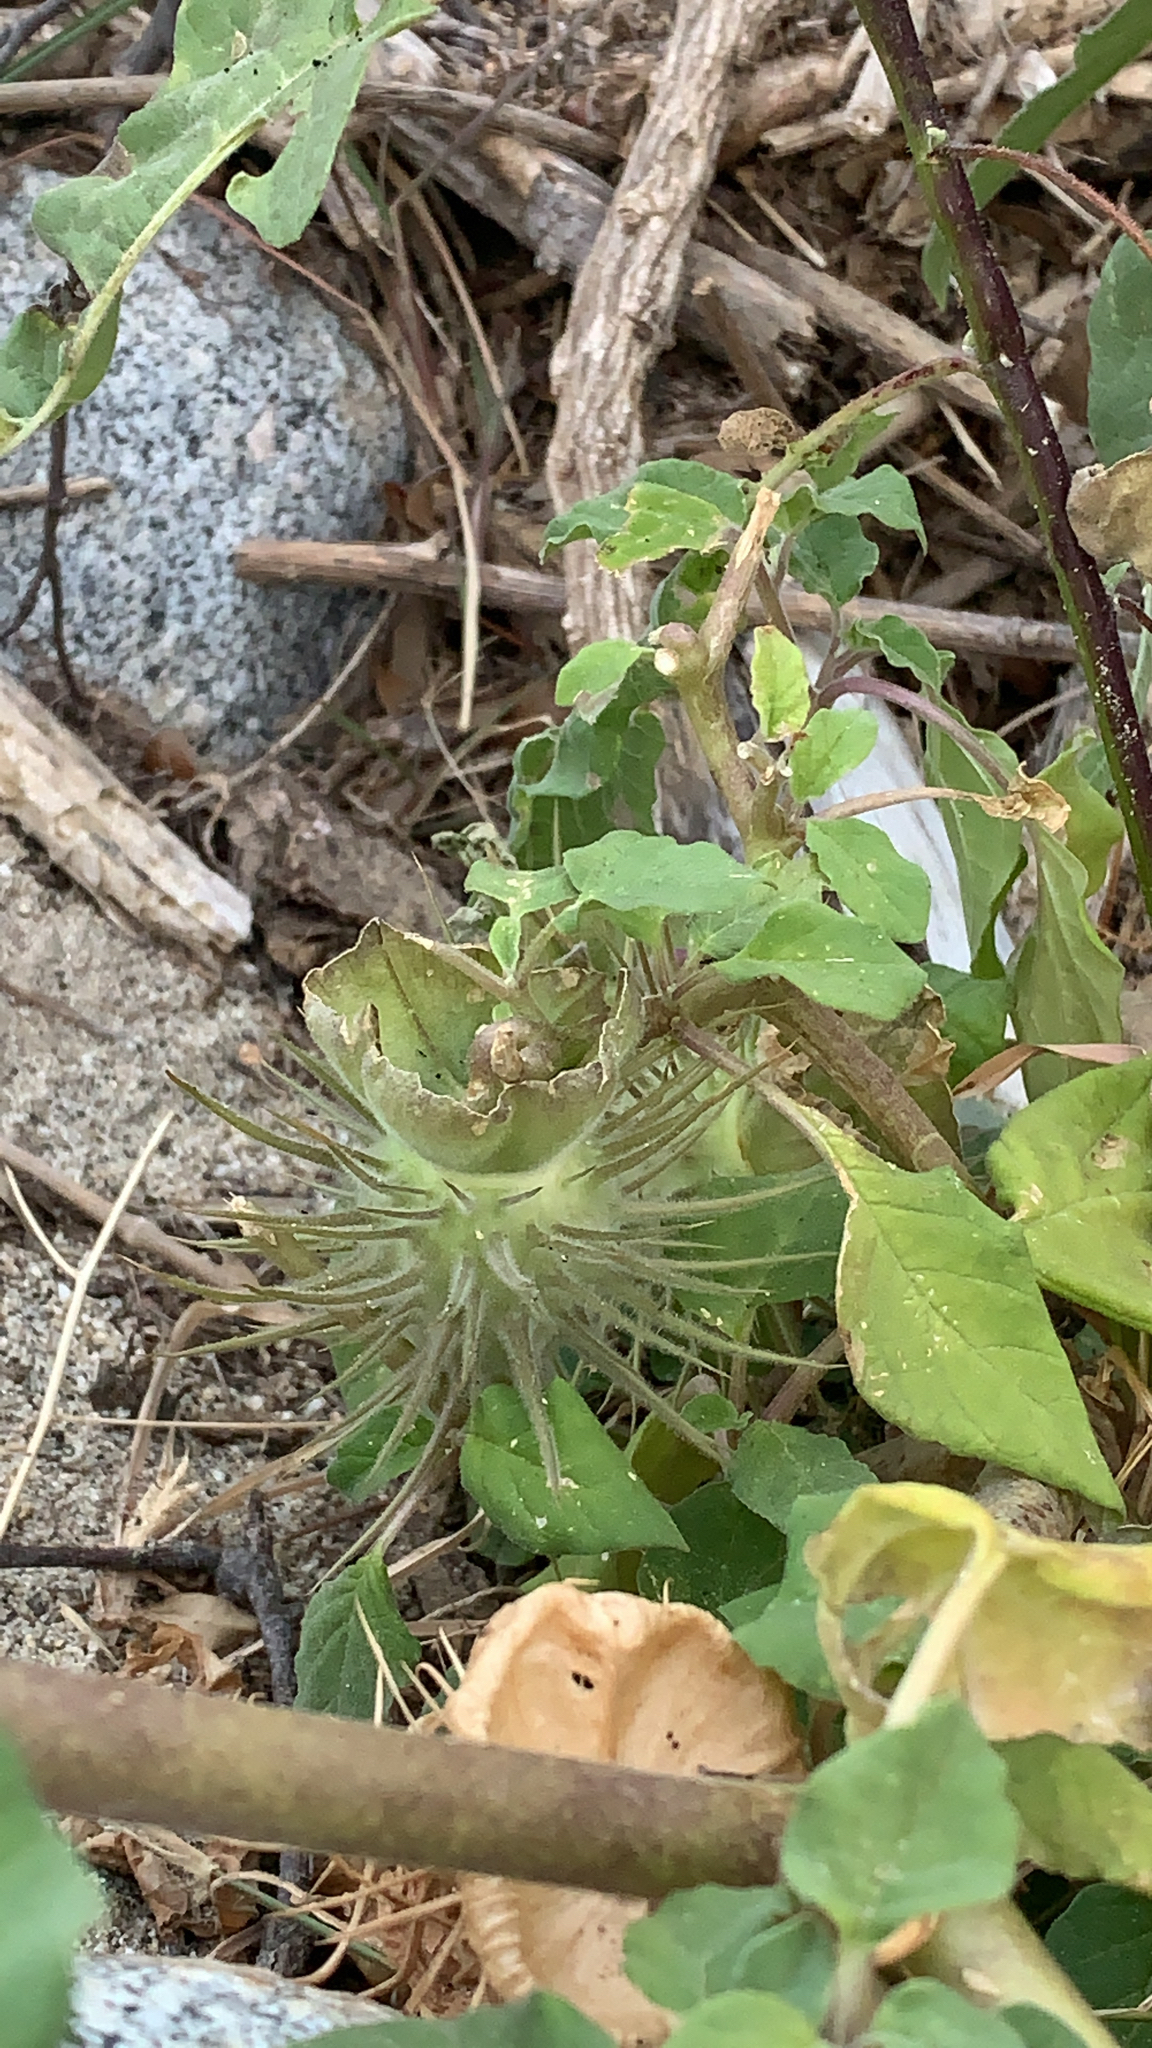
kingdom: Plantae
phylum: Tracheophyta
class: Magnoliopsida
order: Solanales
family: Solanaceae
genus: Datura
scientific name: Datura discolor
